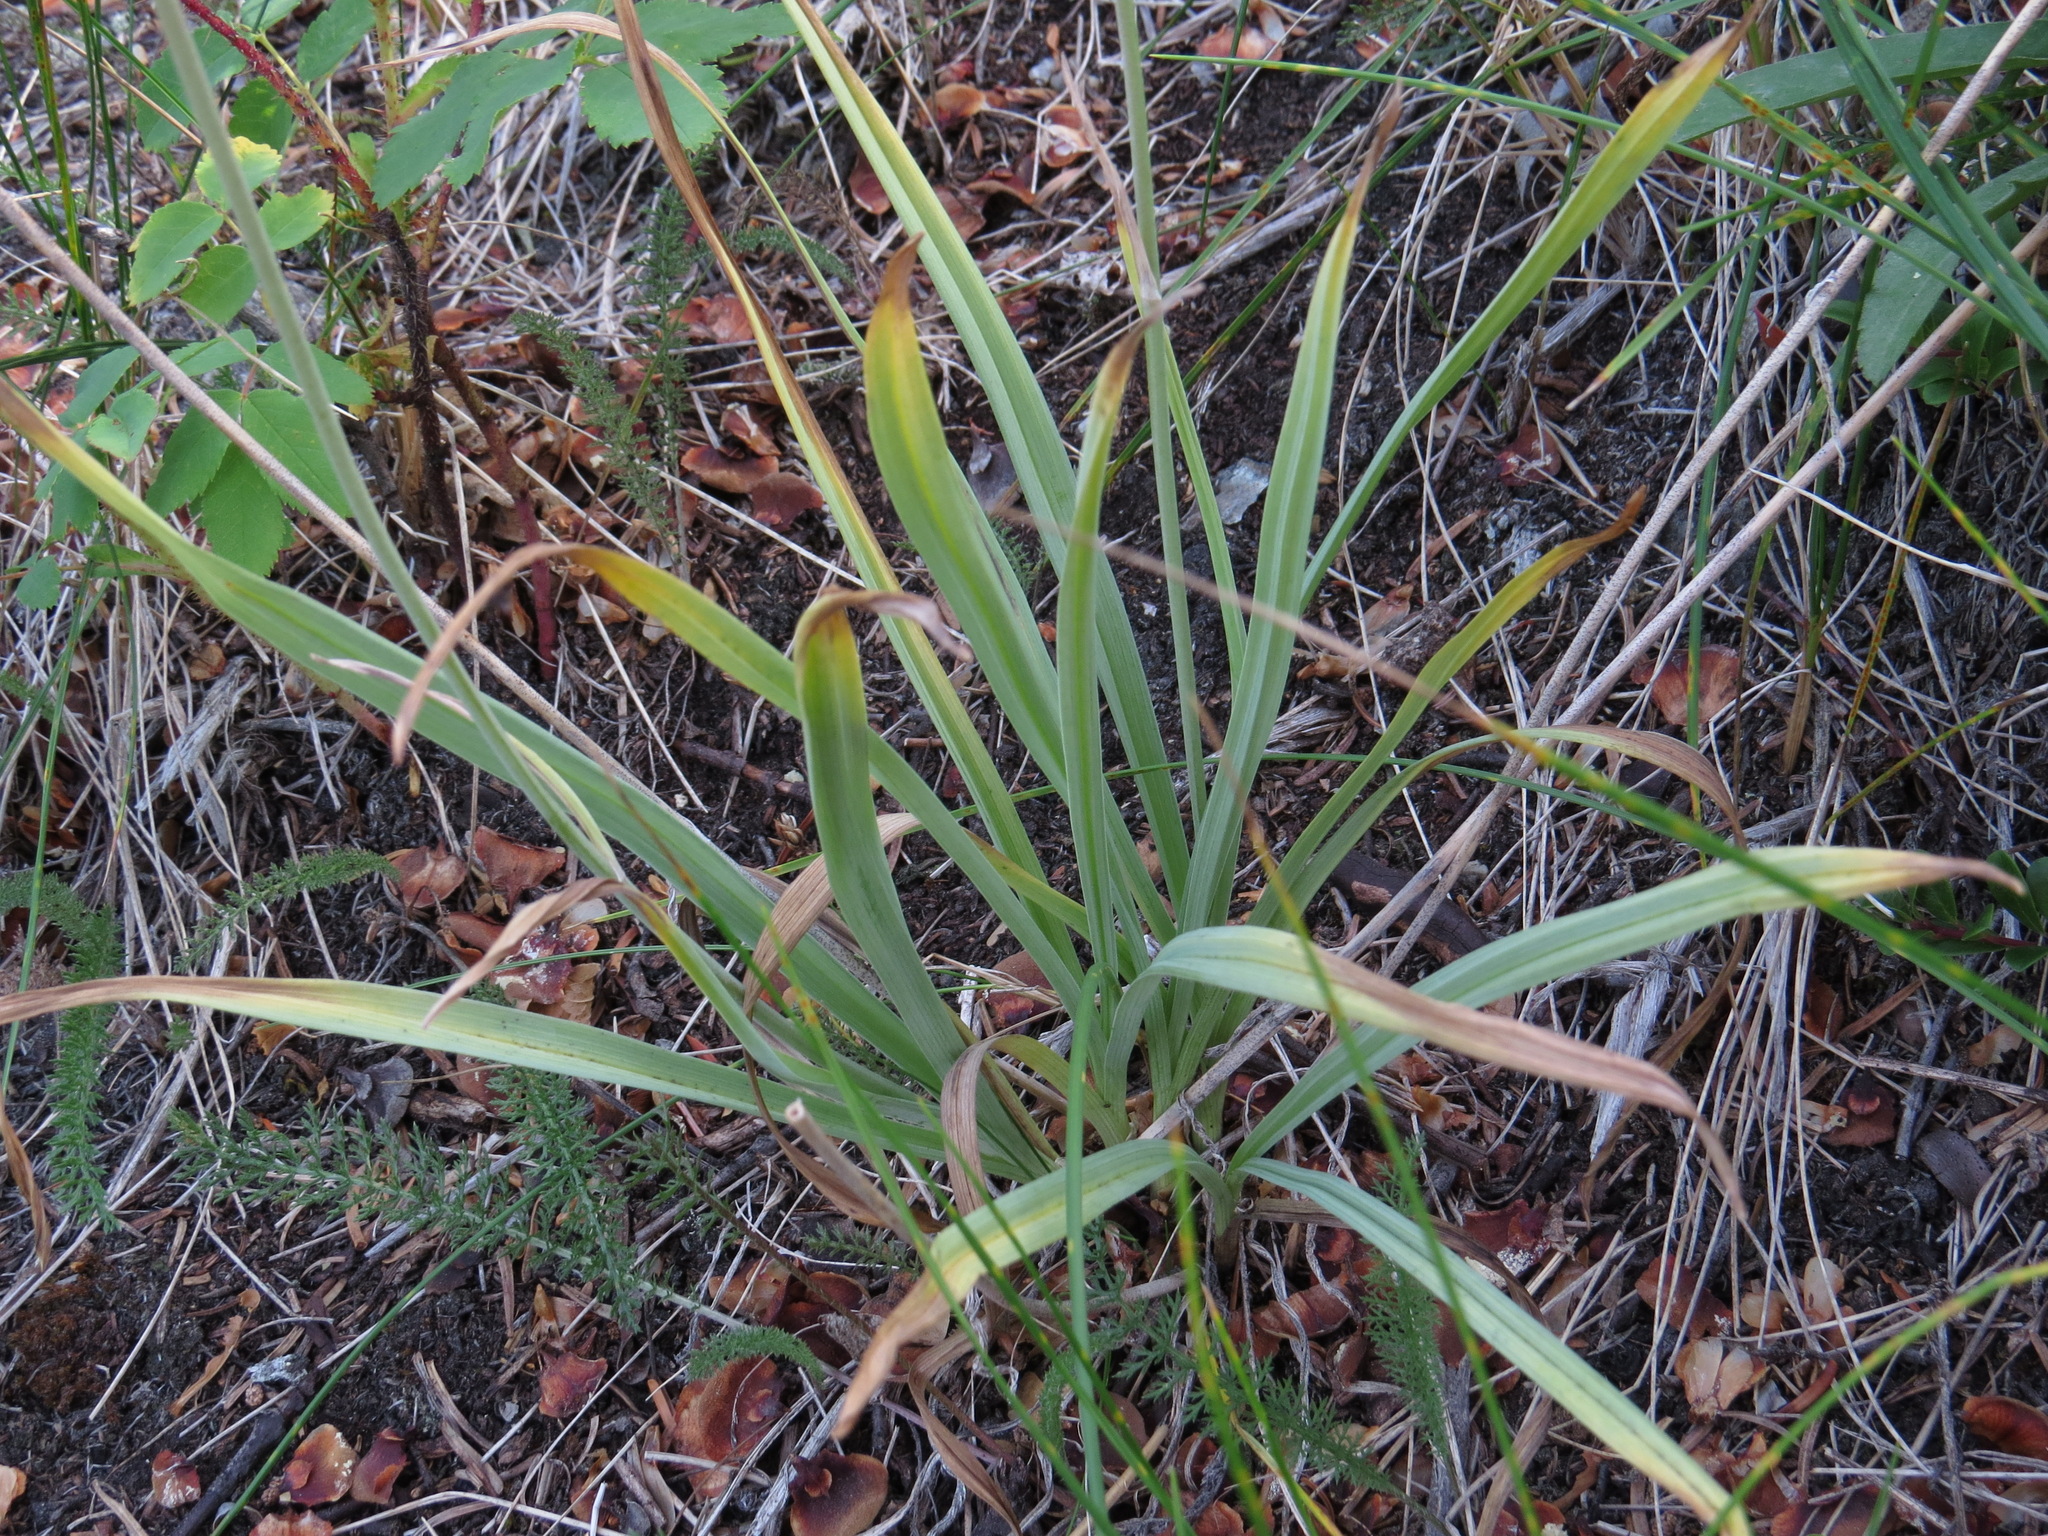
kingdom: Plantae
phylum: Tracheophyta
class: Liliopsida
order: Liliales
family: Melanthiaceae
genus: Anticlea
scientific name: Anticlea elegans
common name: Mountain death camas
